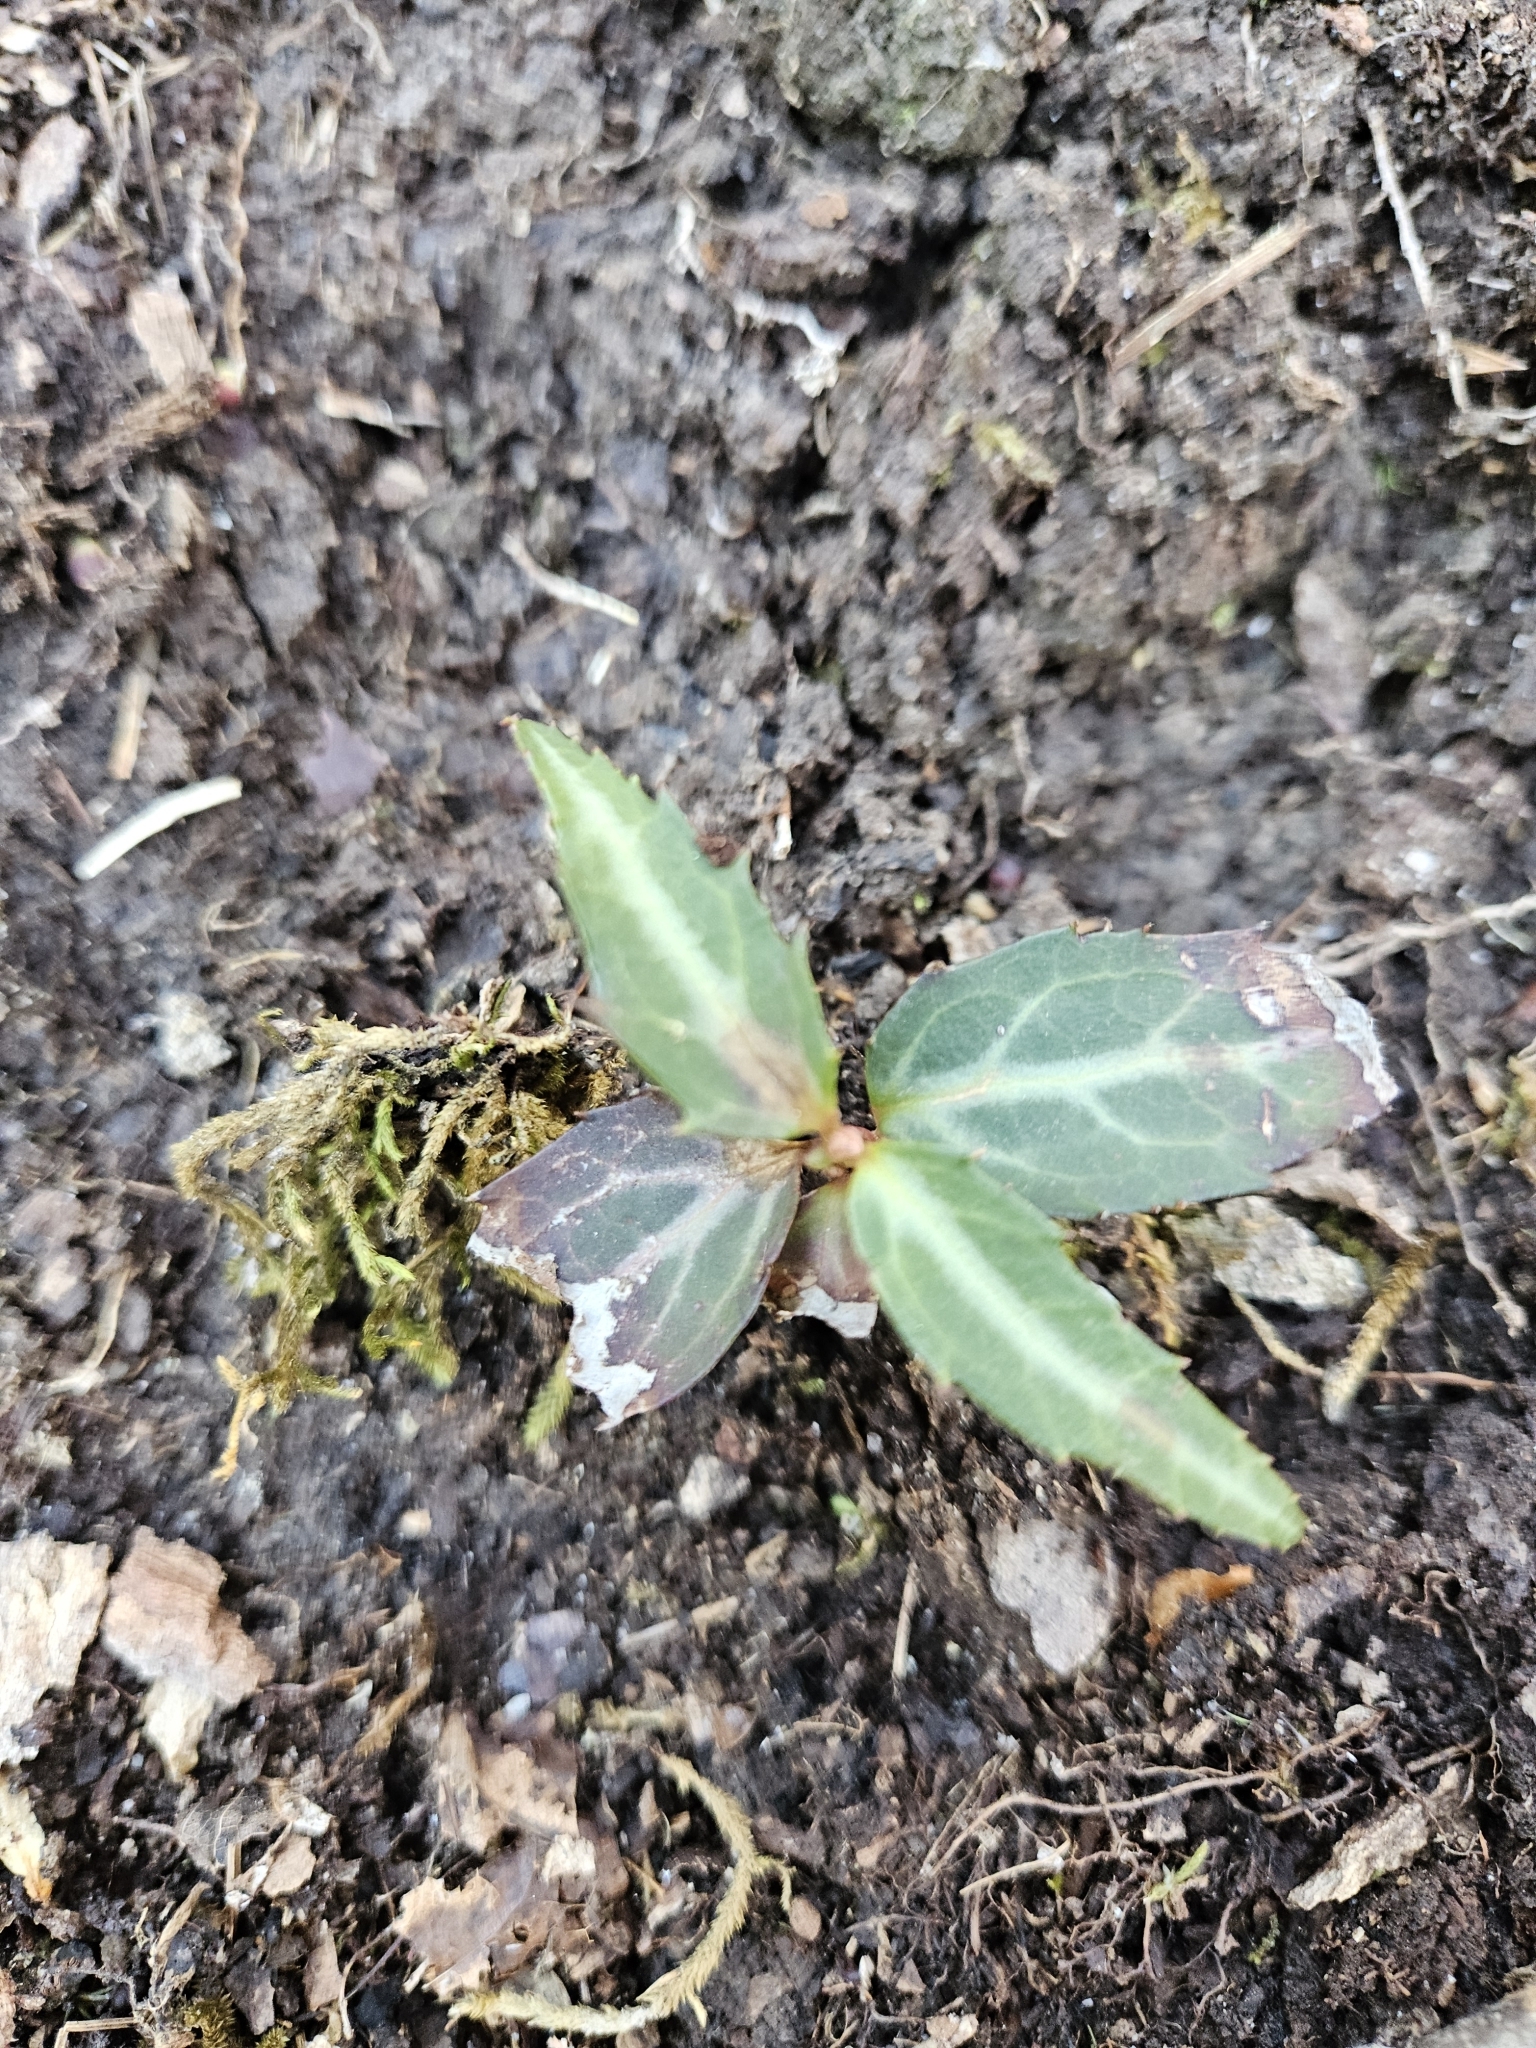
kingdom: Plantae
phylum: Tracheophyta
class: Magnoliopsida
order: Ericales
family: Ericaceae
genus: Chimaphila
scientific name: Chimaphila maculata
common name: Spotted pipsissewa
